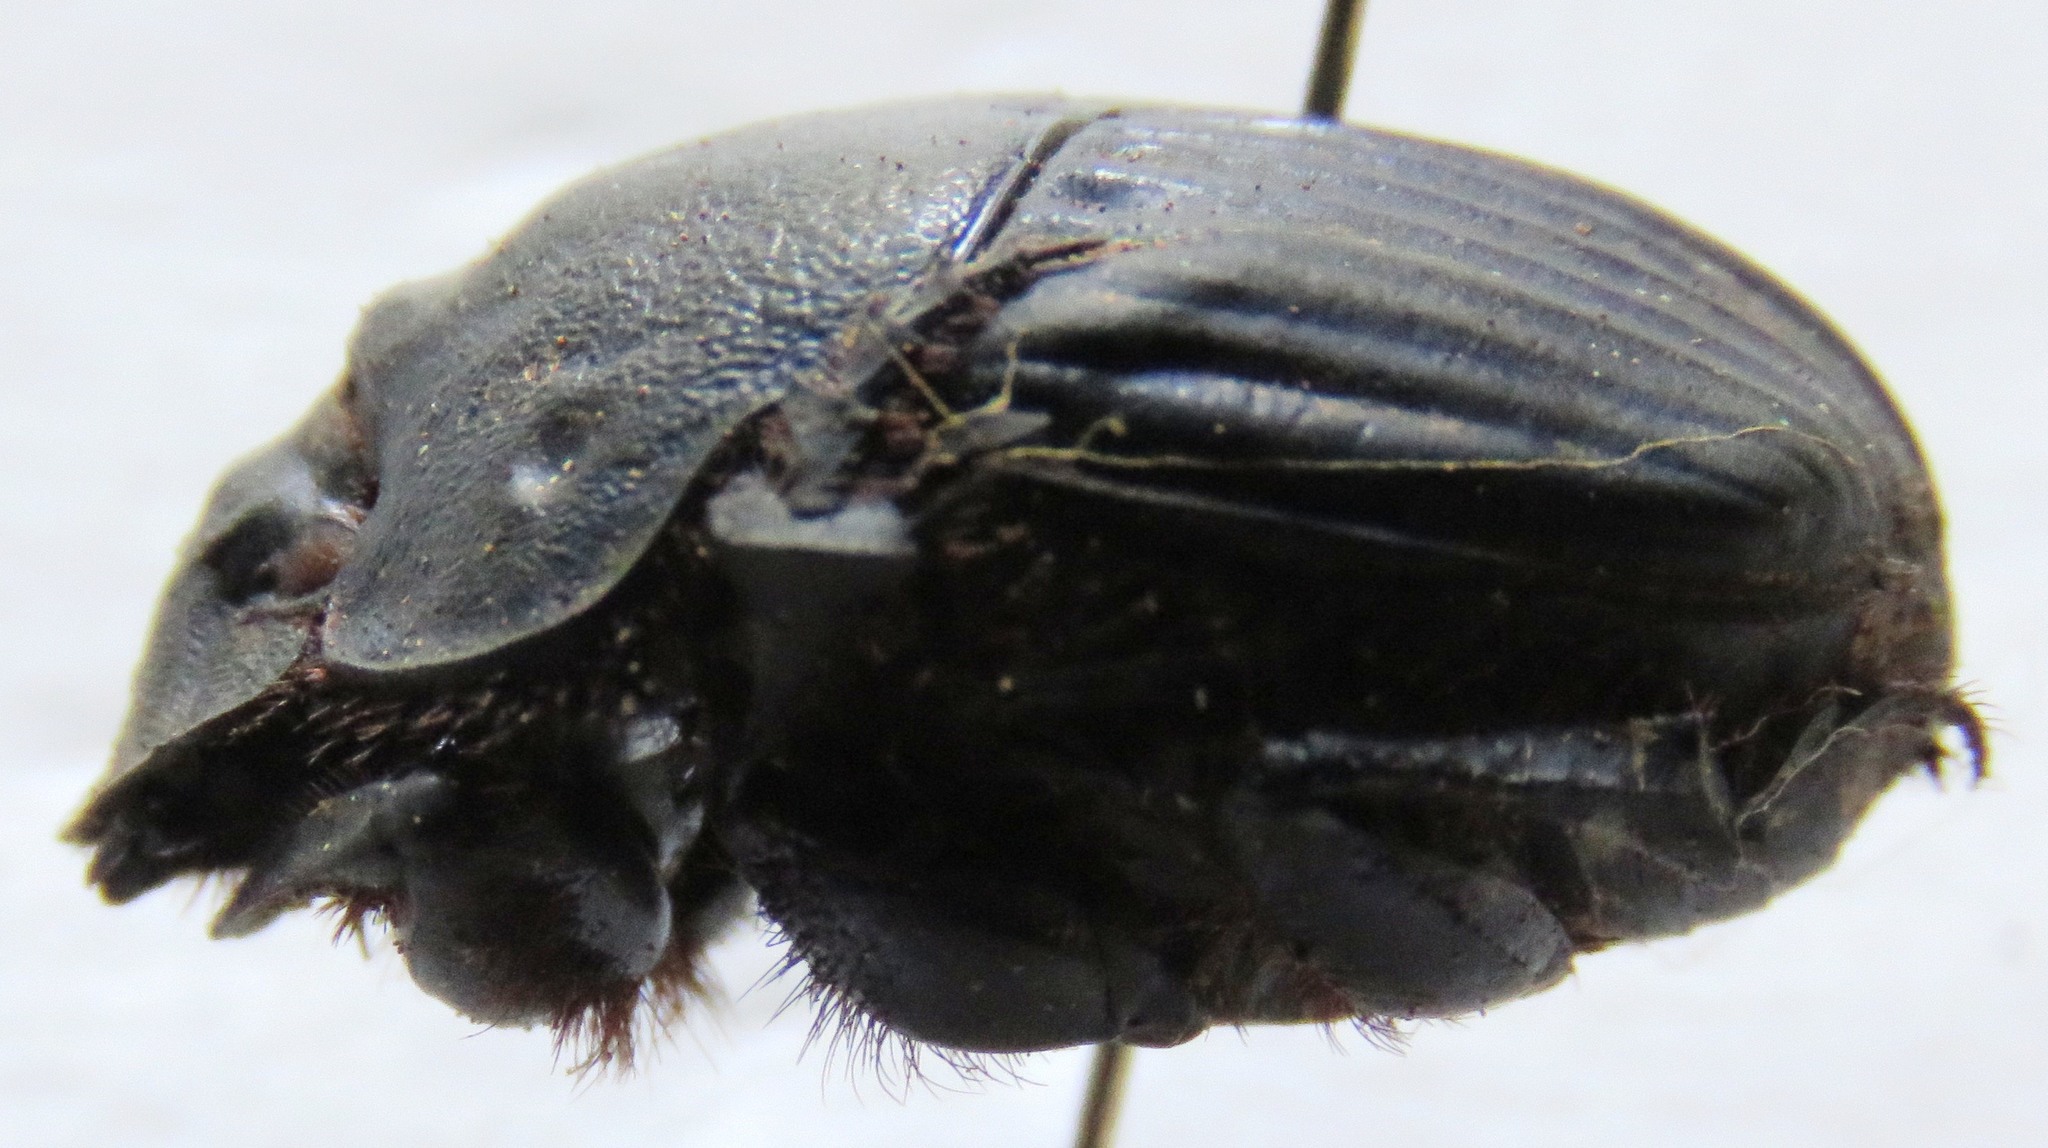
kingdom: Animalia
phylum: Arthropoda
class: Insecta
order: Coleoptera
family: Scarabaeidae
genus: Phanaeus
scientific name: Phanaeus guatemalensis
